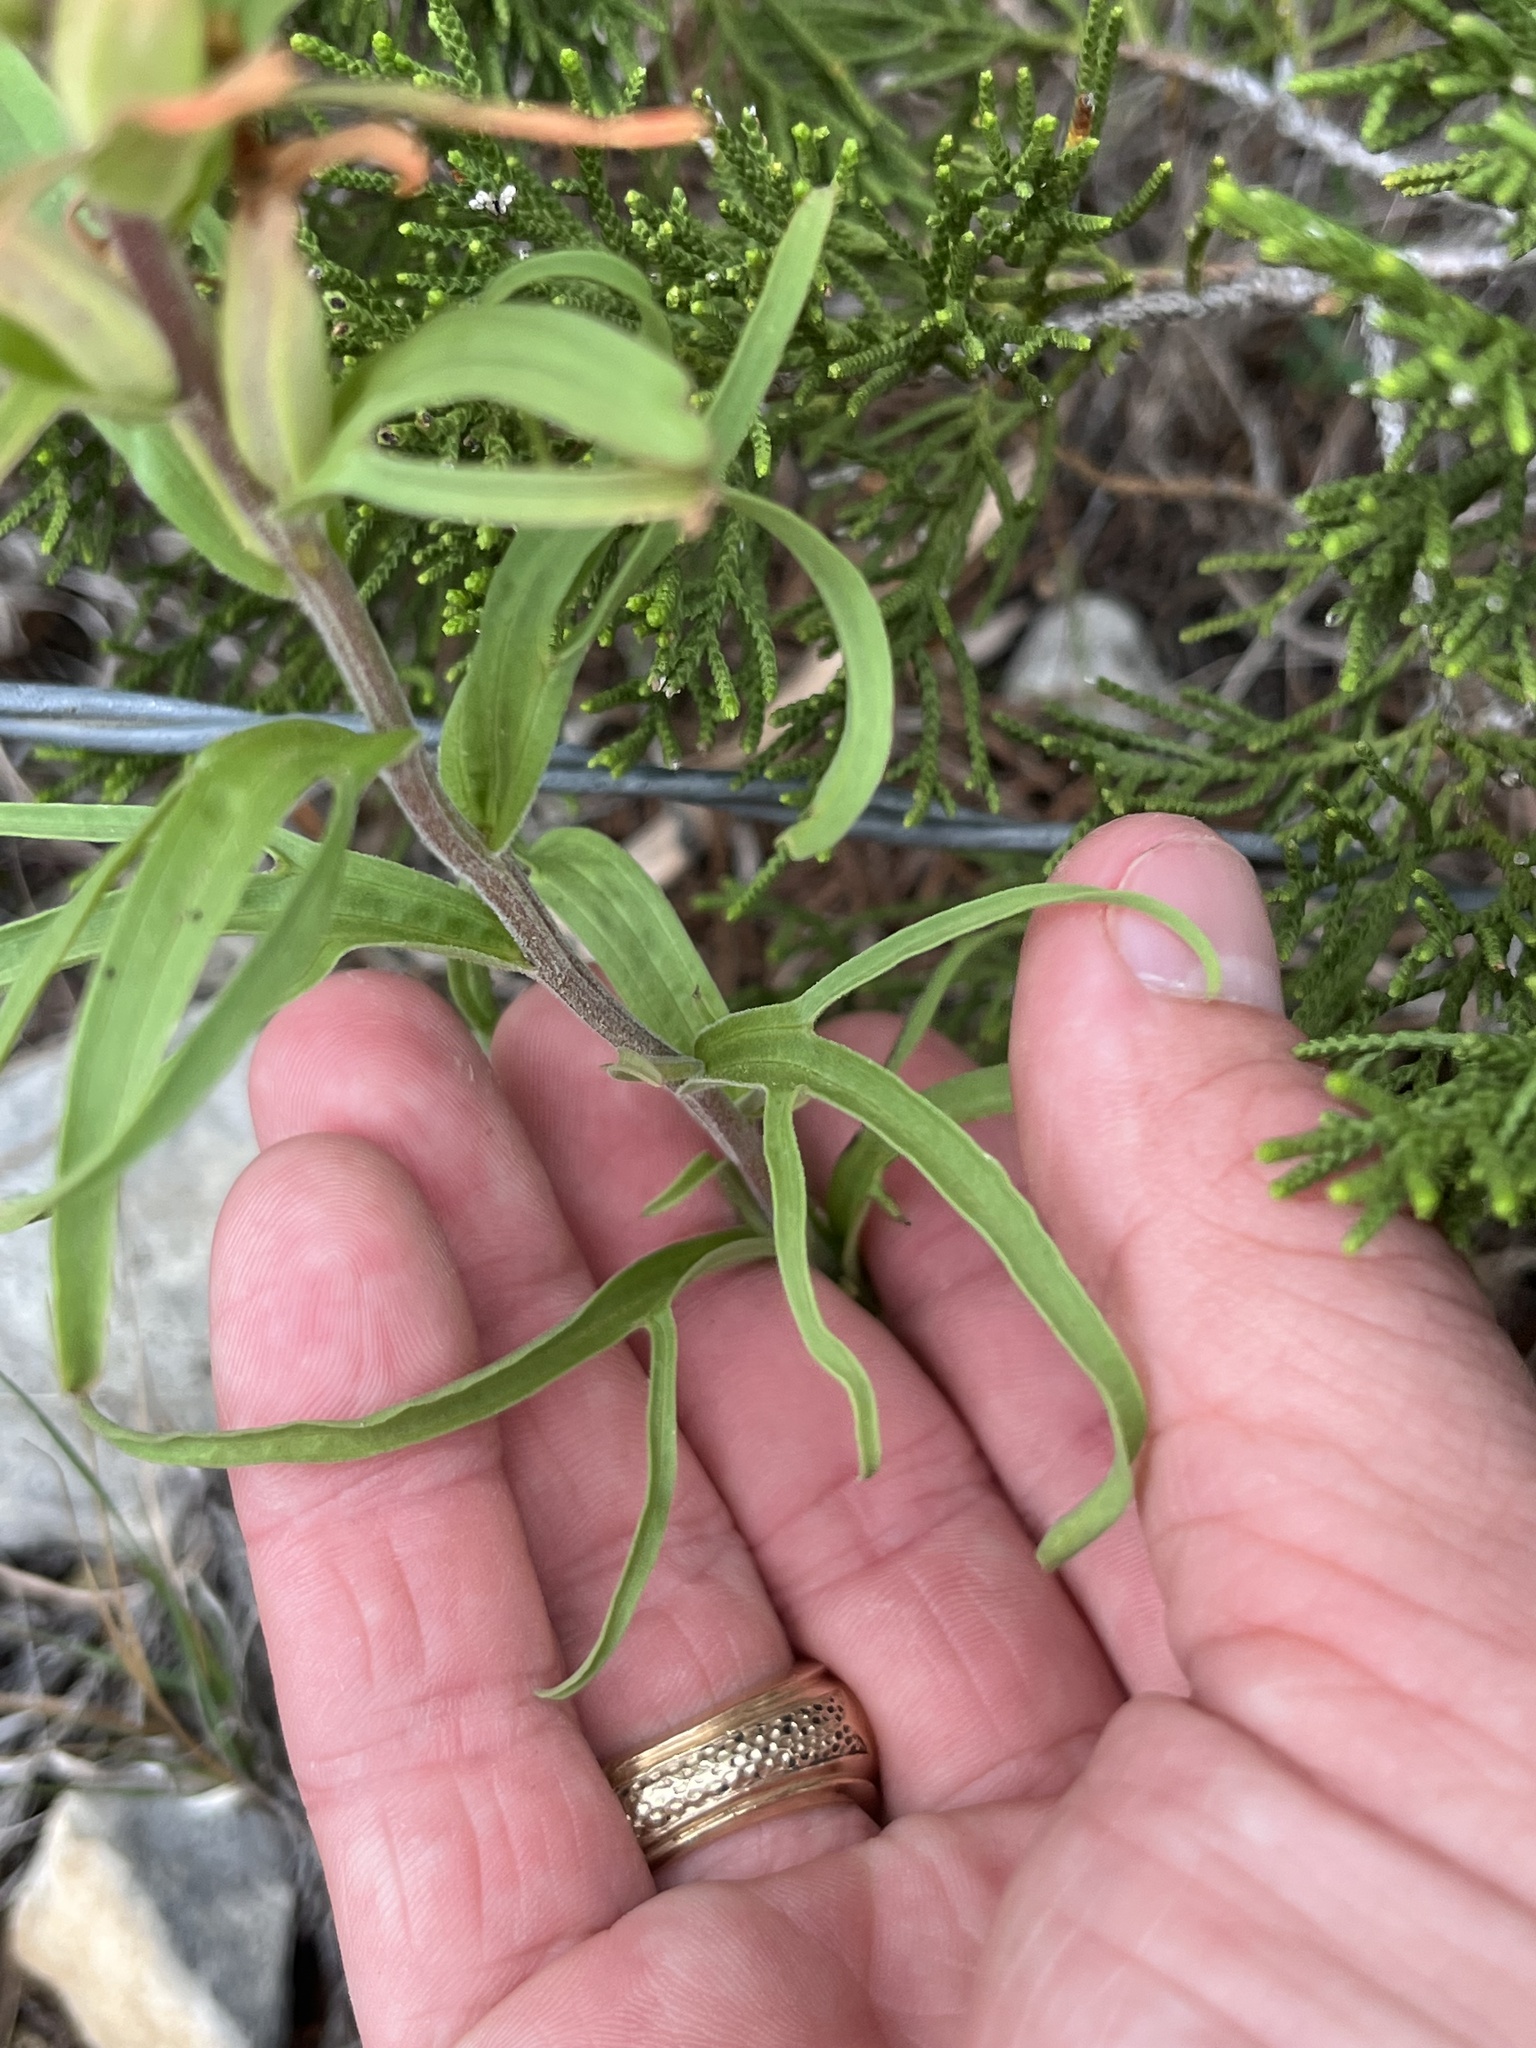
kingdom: Plantae
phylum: Tracheophyta
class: Magnoliopsida
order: Lamiales
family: Orobanchaceae
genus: Castilleja
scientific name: Castilleja lindheimeri
